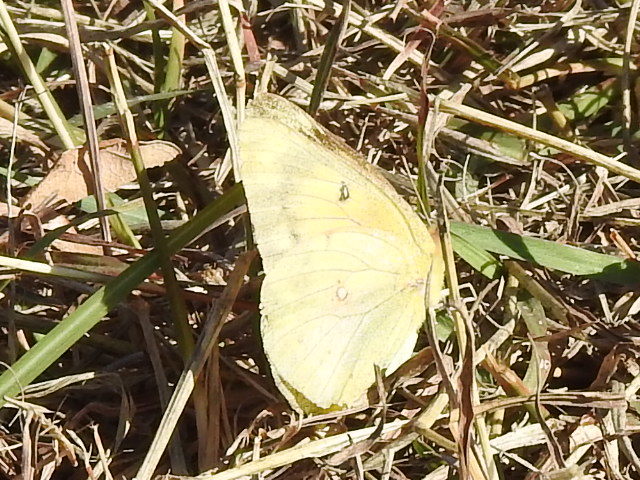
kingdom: Animalia
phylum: Arthropoda
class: Insecta
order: Lepidoptera
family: Pieridae
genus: Colias
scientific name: Colias eurytheme
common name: Alfalfa butterfly
